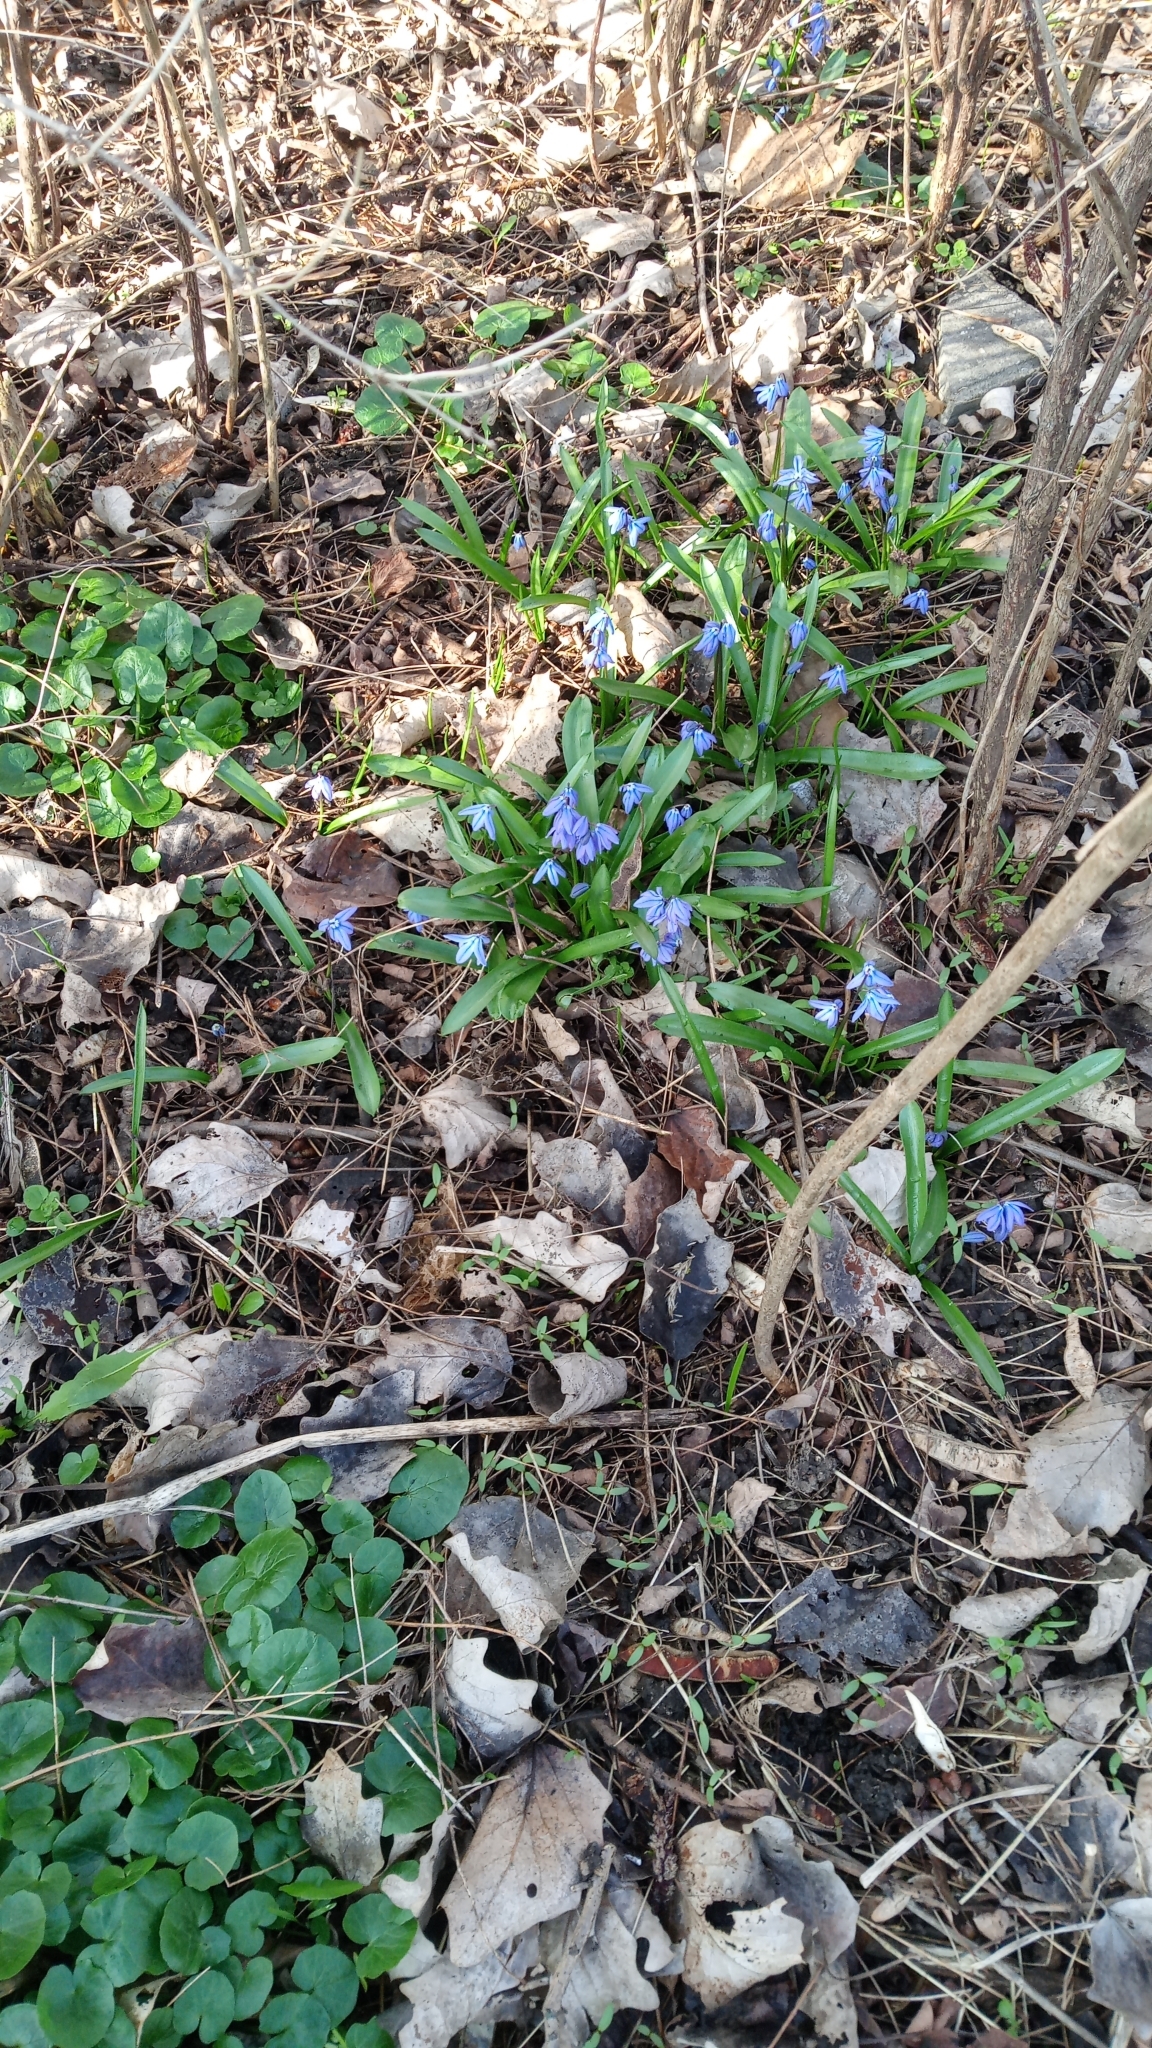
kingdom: Plantae
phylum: Tracheophyta
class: Liliopsida
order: Asparagales
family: Asparagaceae
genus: Scilla
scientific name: Scilla siberica
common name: Siberian squill
